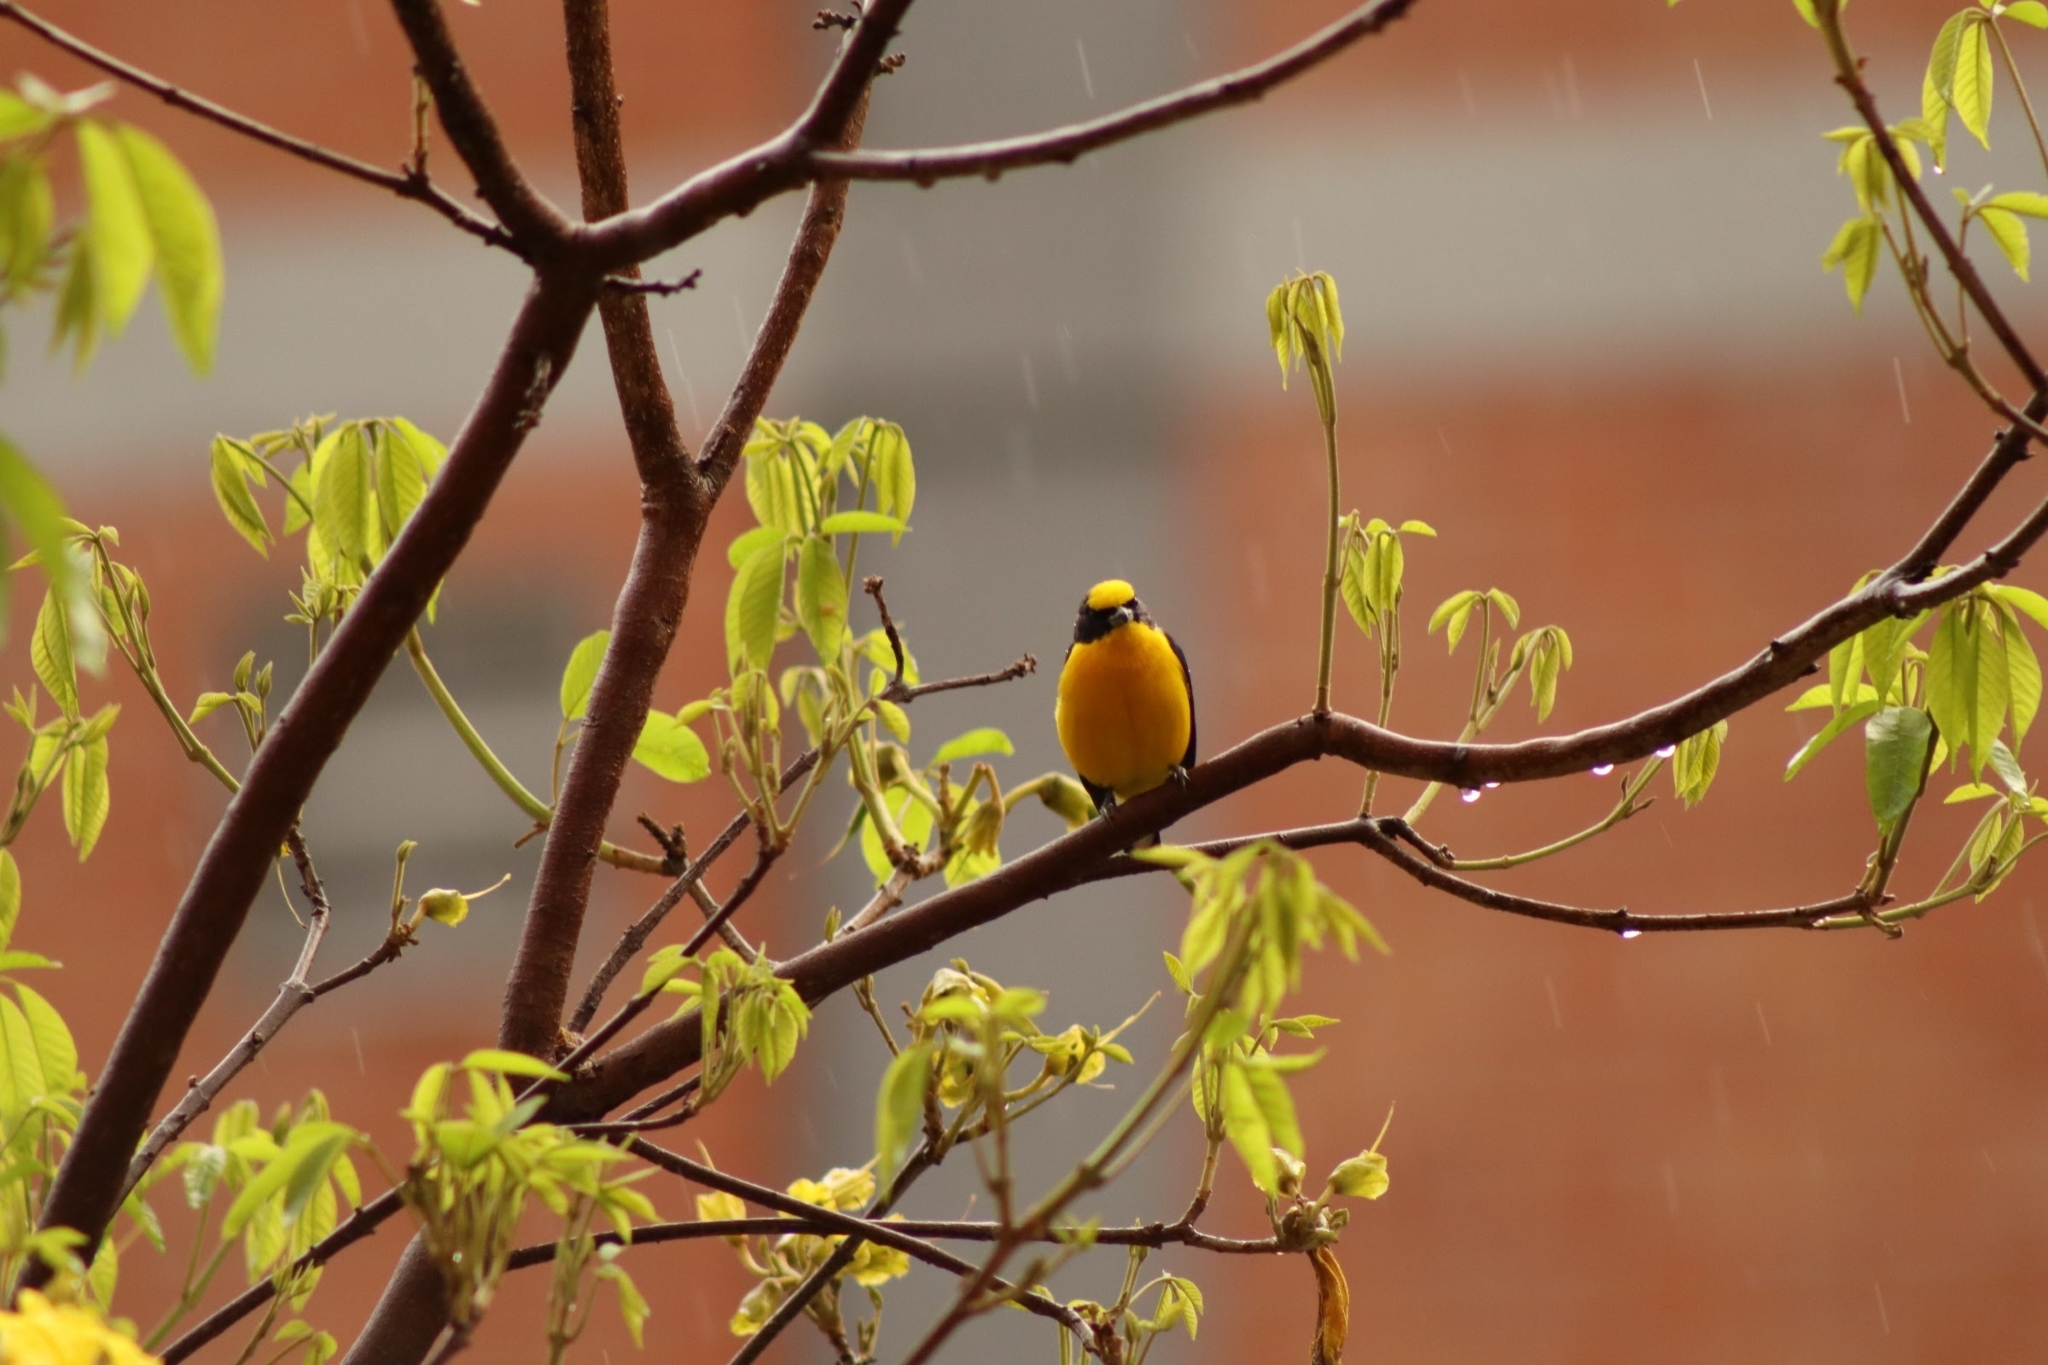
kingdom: Animalia
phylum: Chordata
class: Aves
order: Passeriformes
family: Fringillidae
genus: Euphonia
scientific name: Euphonia laniirostris
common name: Thick-billed euphonia
